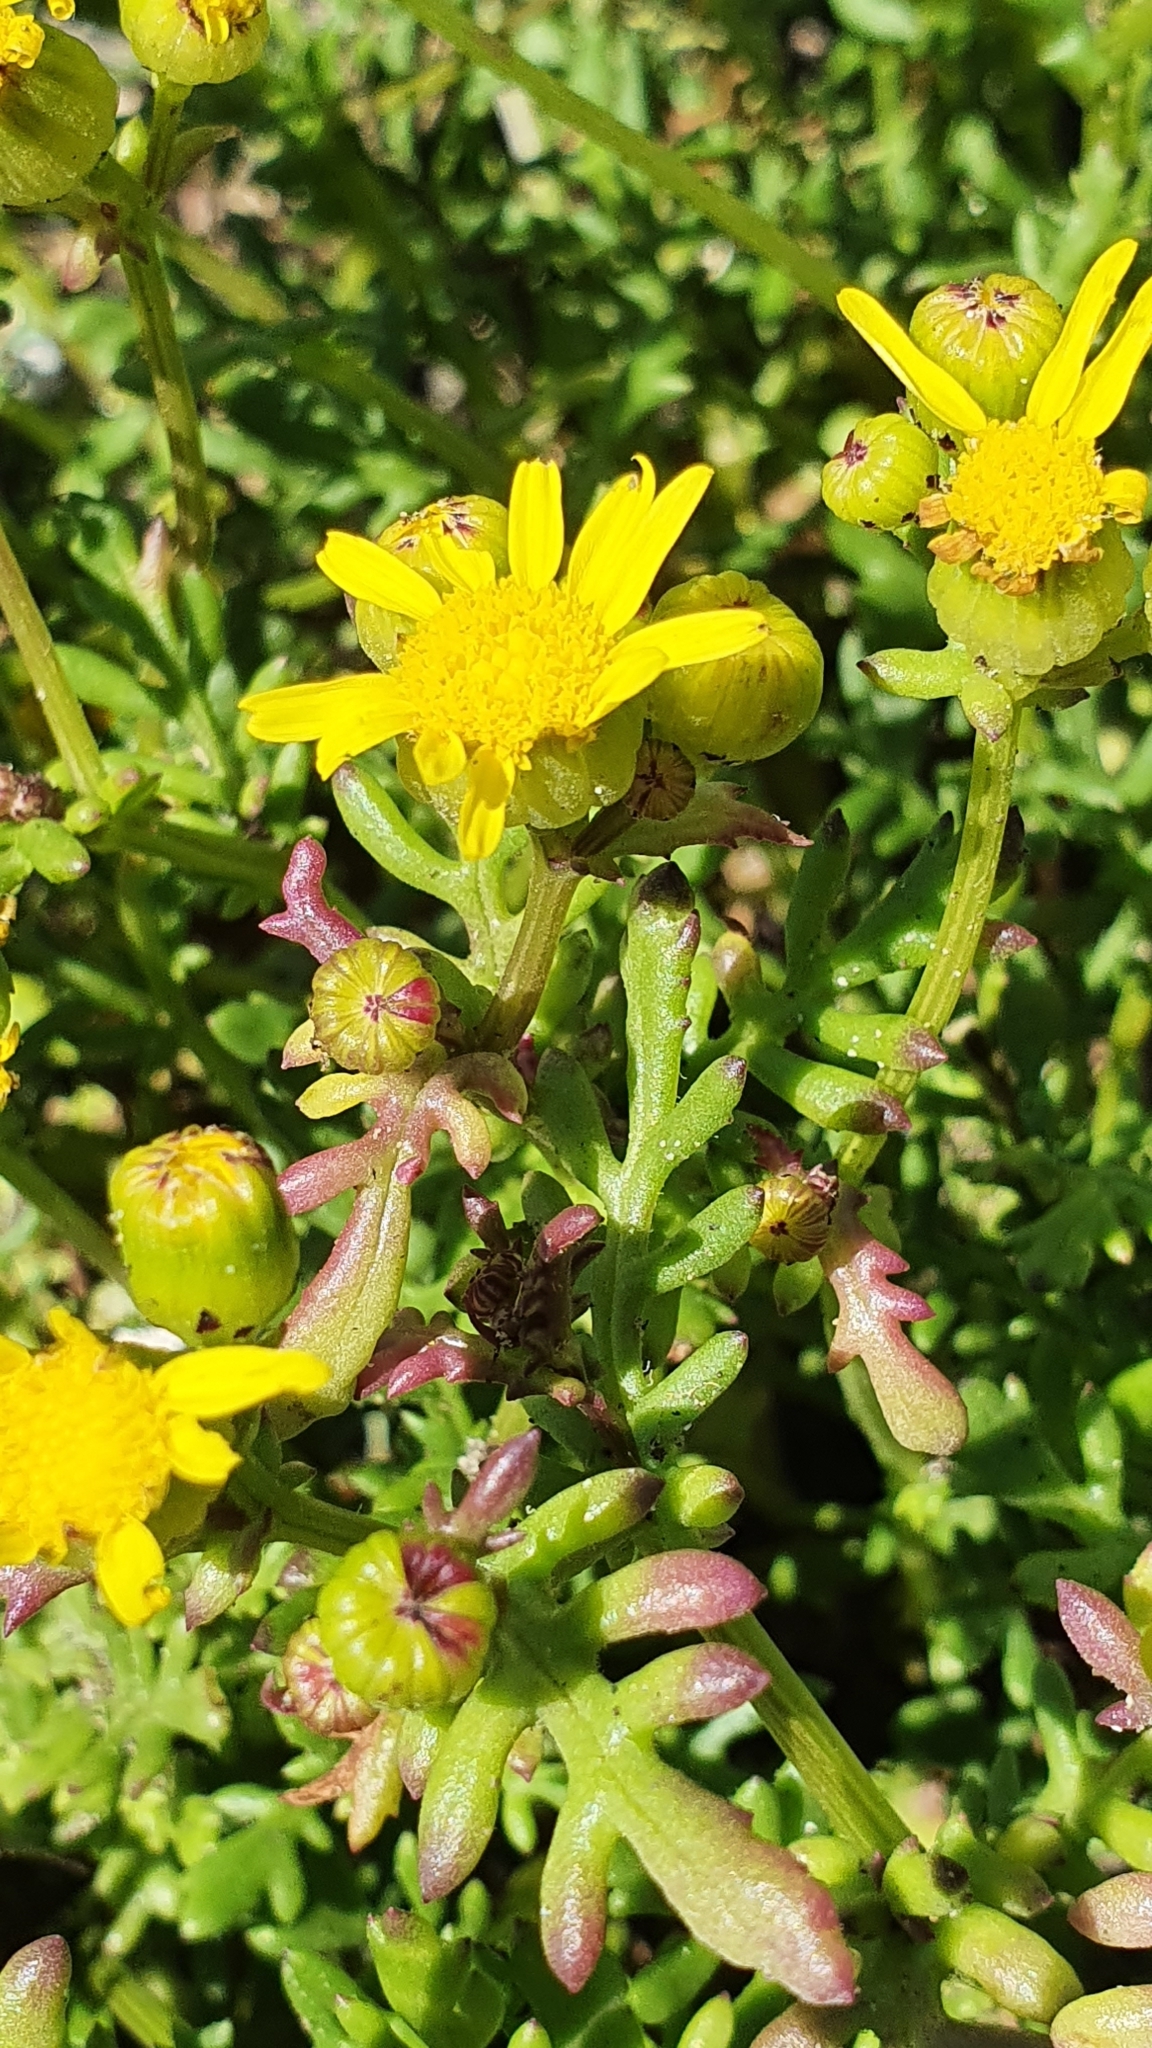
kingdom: Plantae
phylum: Tracheophyta
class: Magnoliopsida
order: Asterales
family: Asteraceae
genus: Senecio
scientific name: Senecio lautus
